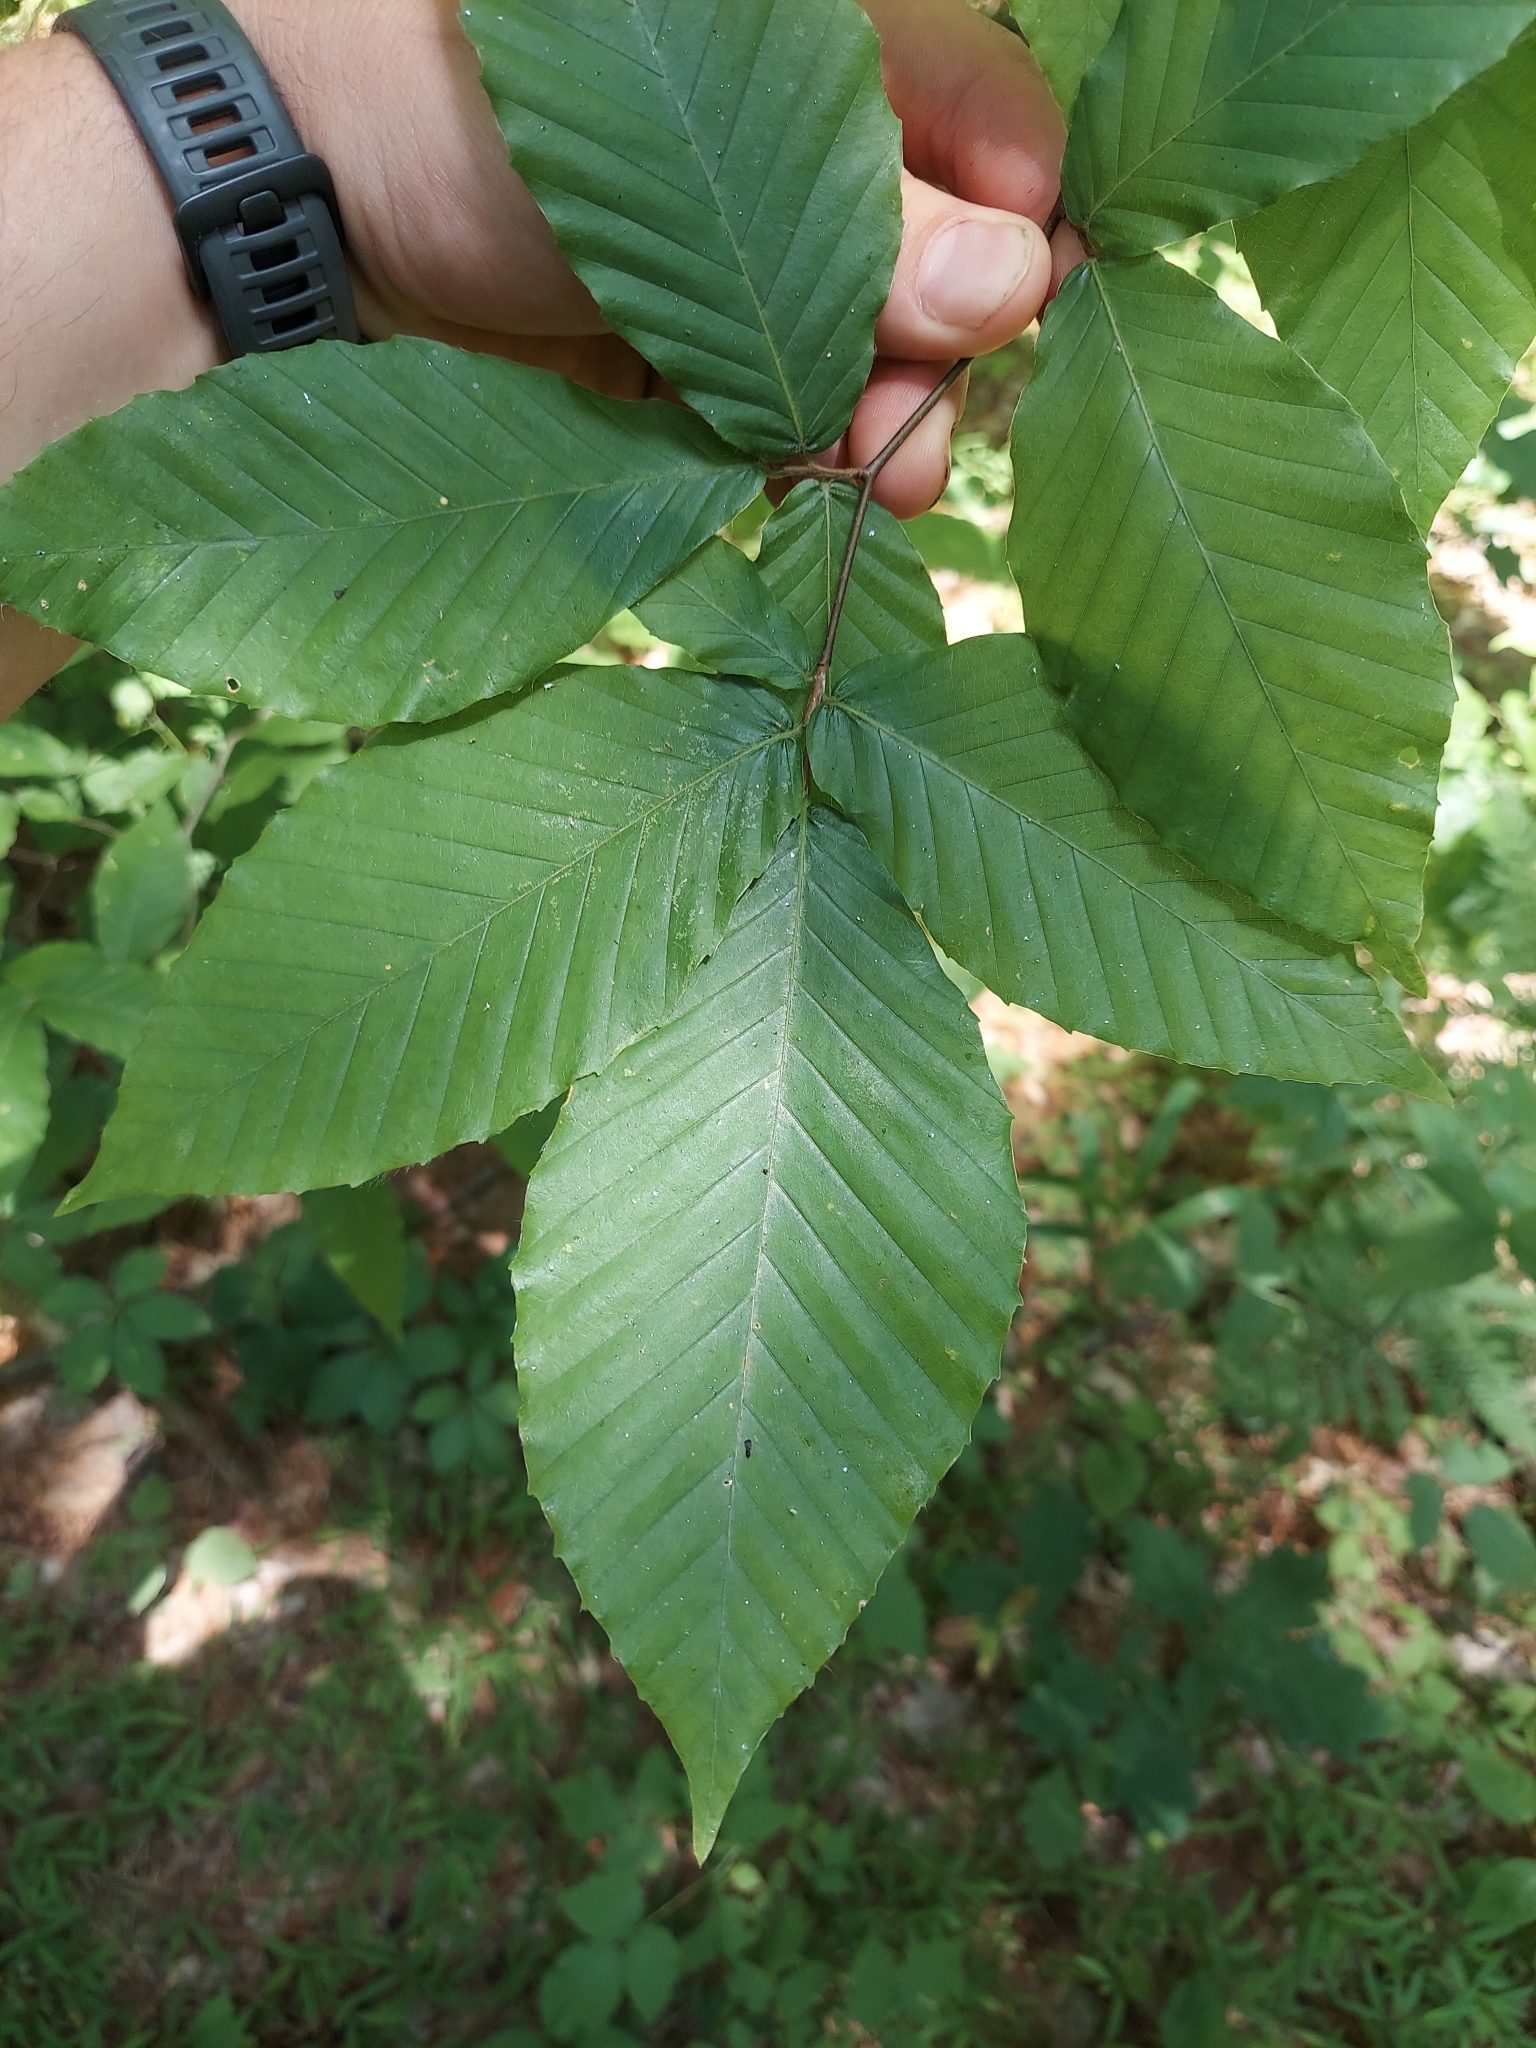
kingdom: Plantae
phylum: Tracheophyta
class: Magnoliopsida
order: Fagales
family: Fagaceae
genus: Fagus
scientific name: Fagus grandifolia
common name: American beech
